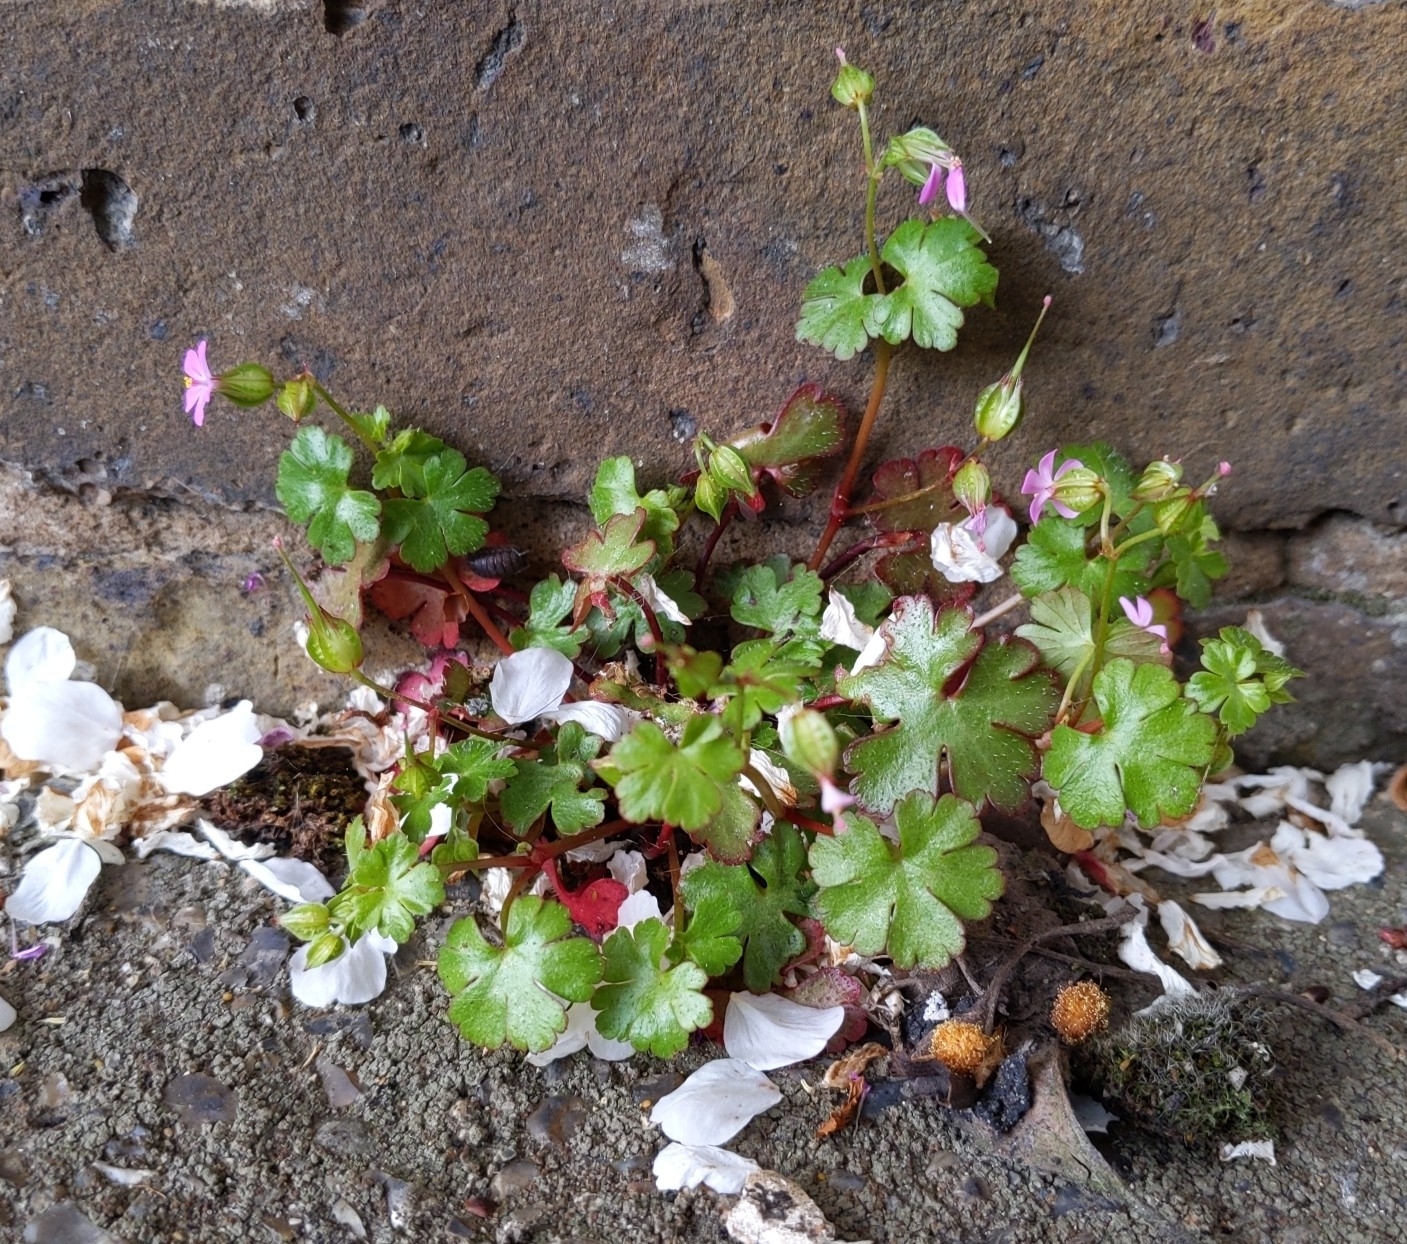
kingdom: Plantae
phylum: Tracheophyta
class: Magnoliopsida
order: Geraniales
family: Geraniaceae
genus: Geranium
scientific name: Geranium lucidum
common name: Shining crane's-bill
